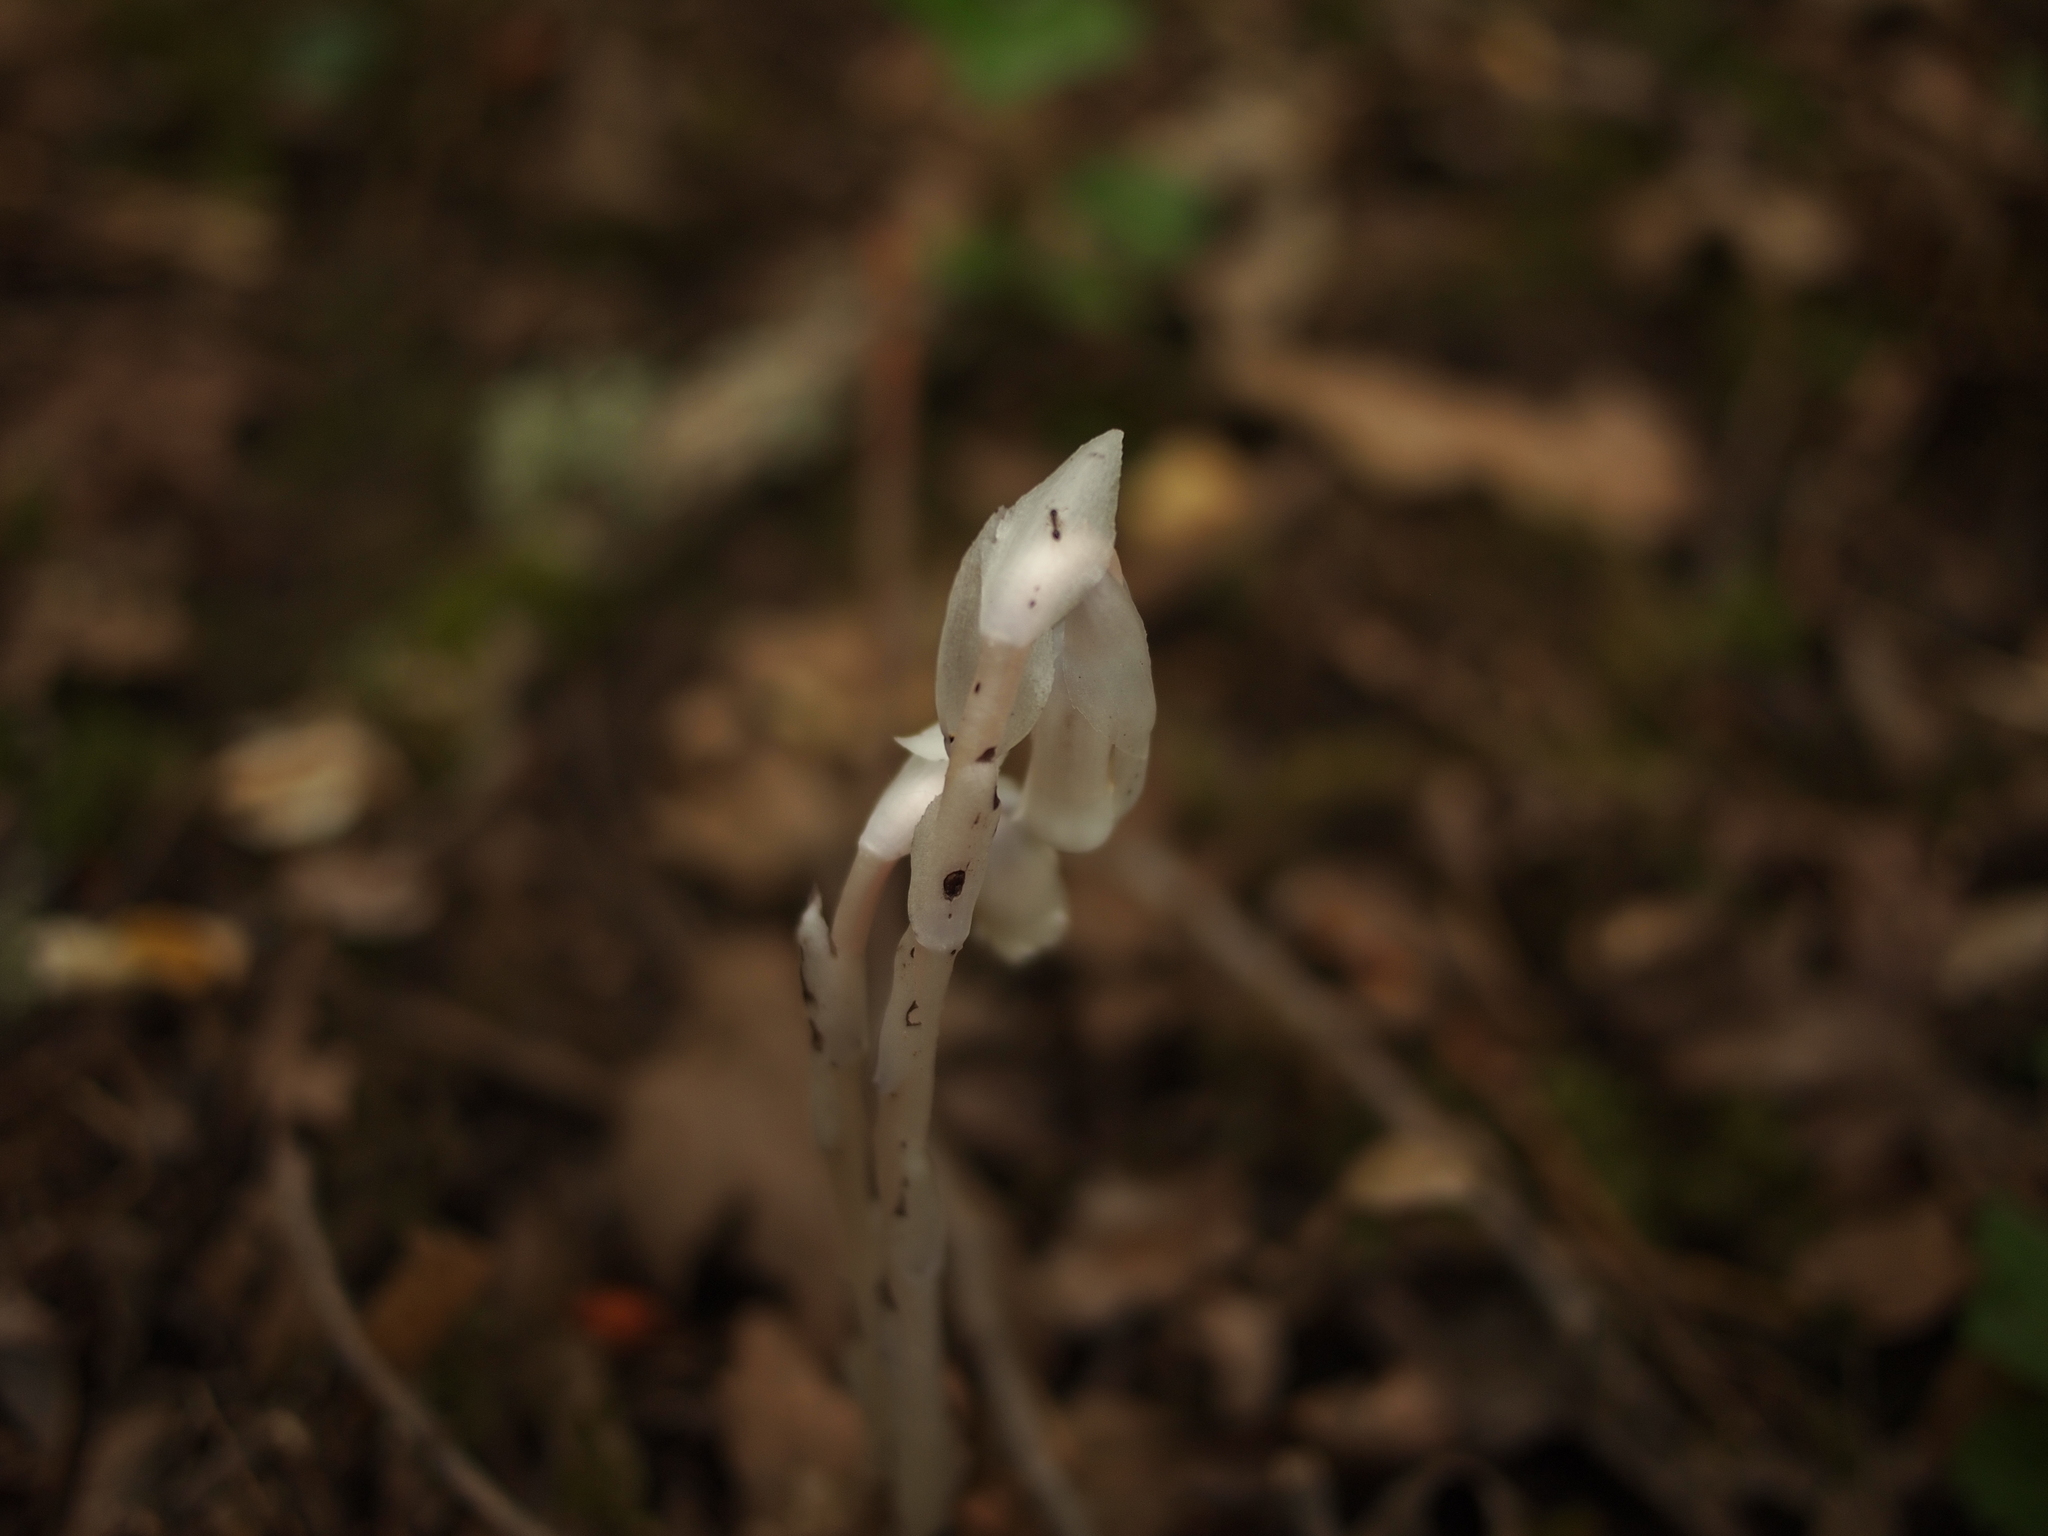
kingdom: Plantae
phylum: Tracheophyta
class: Magnoliopsida
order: Ericales
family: Ericaceae
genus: Monotropa
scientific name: Monotropa uniflora
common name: Convulsion root
